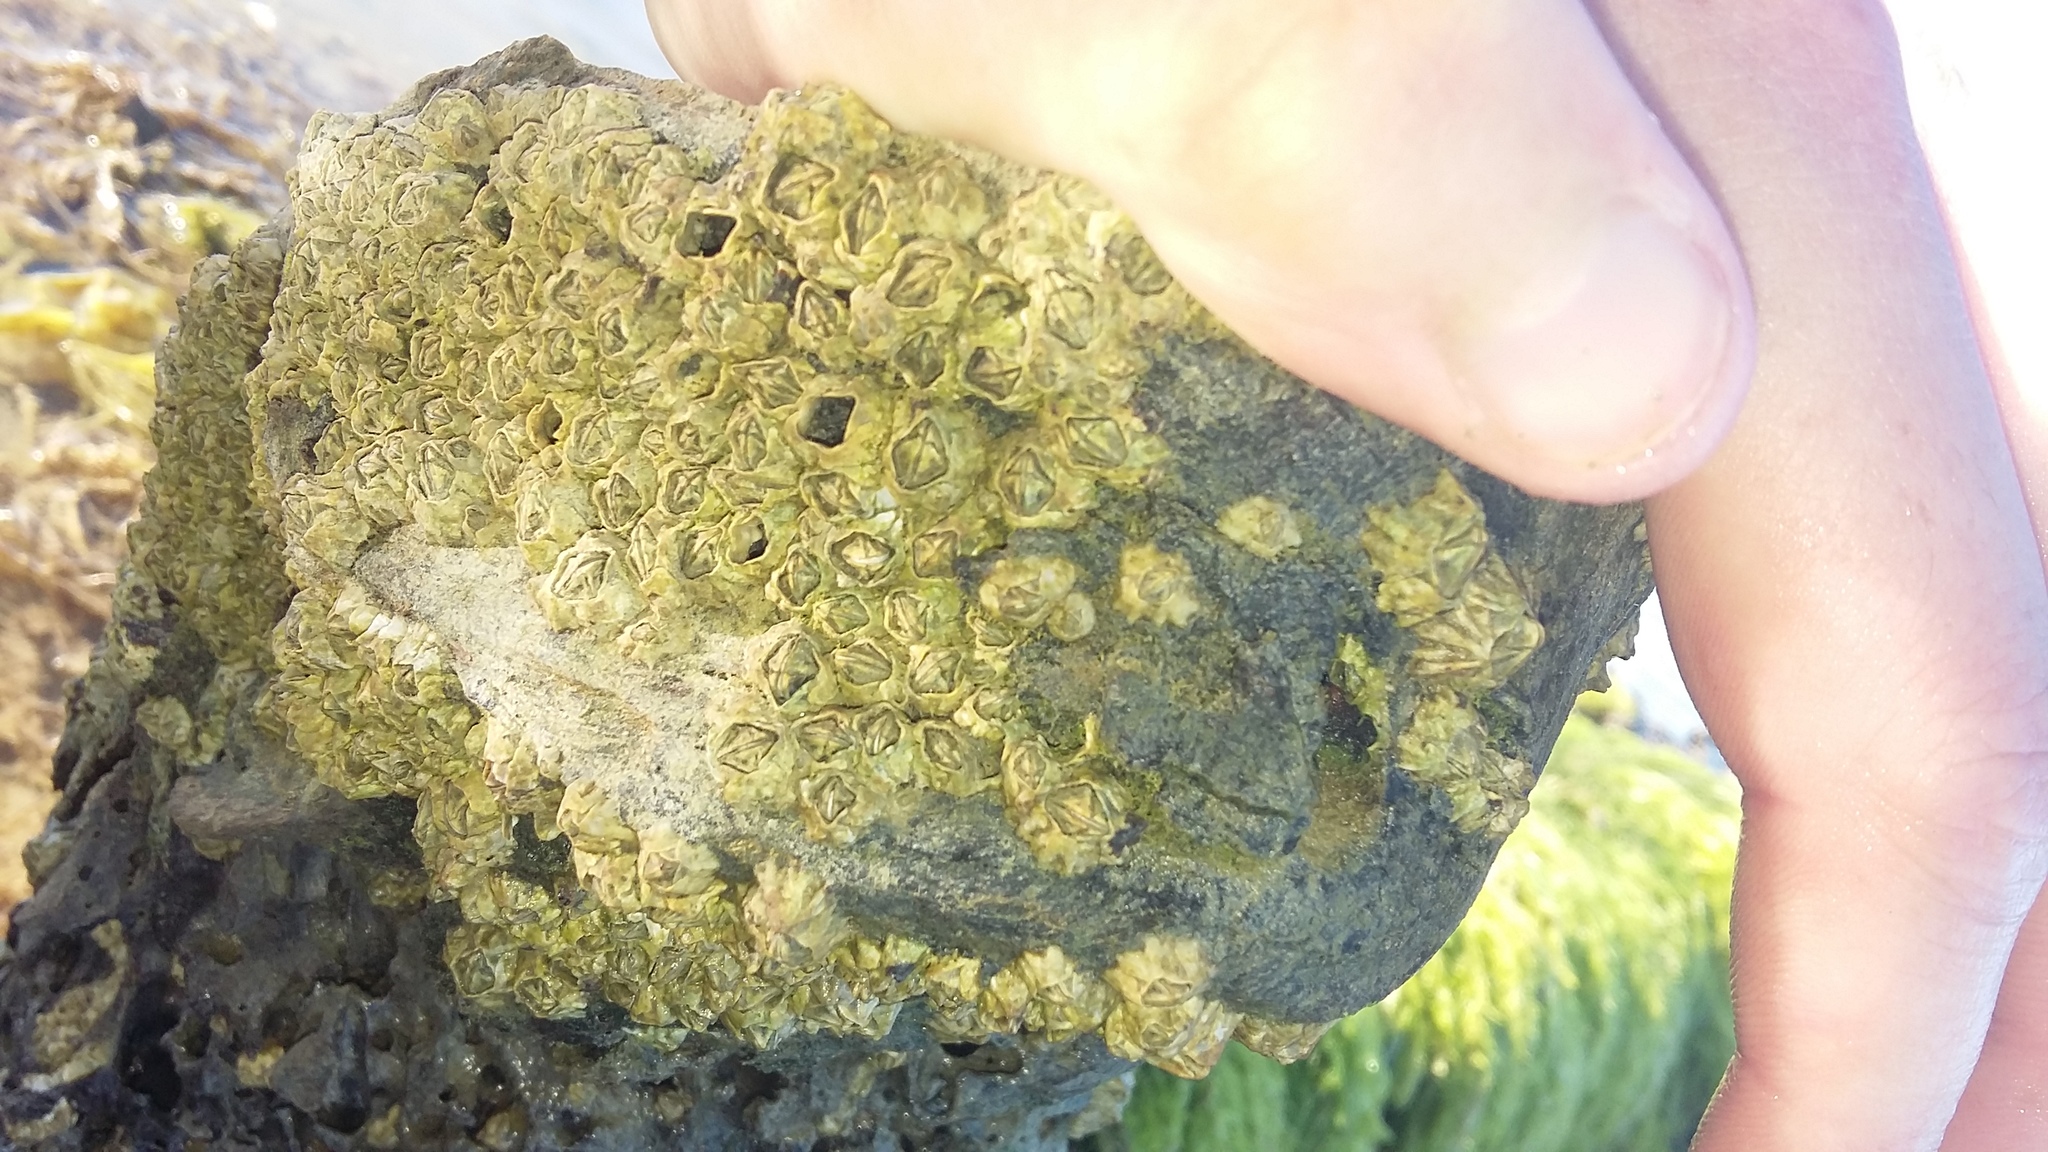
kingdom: Animalia
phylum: Arthropoda
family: Elminiidae
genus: Austrominius
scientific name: Austrominius modestus
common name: Australasian barnacle
